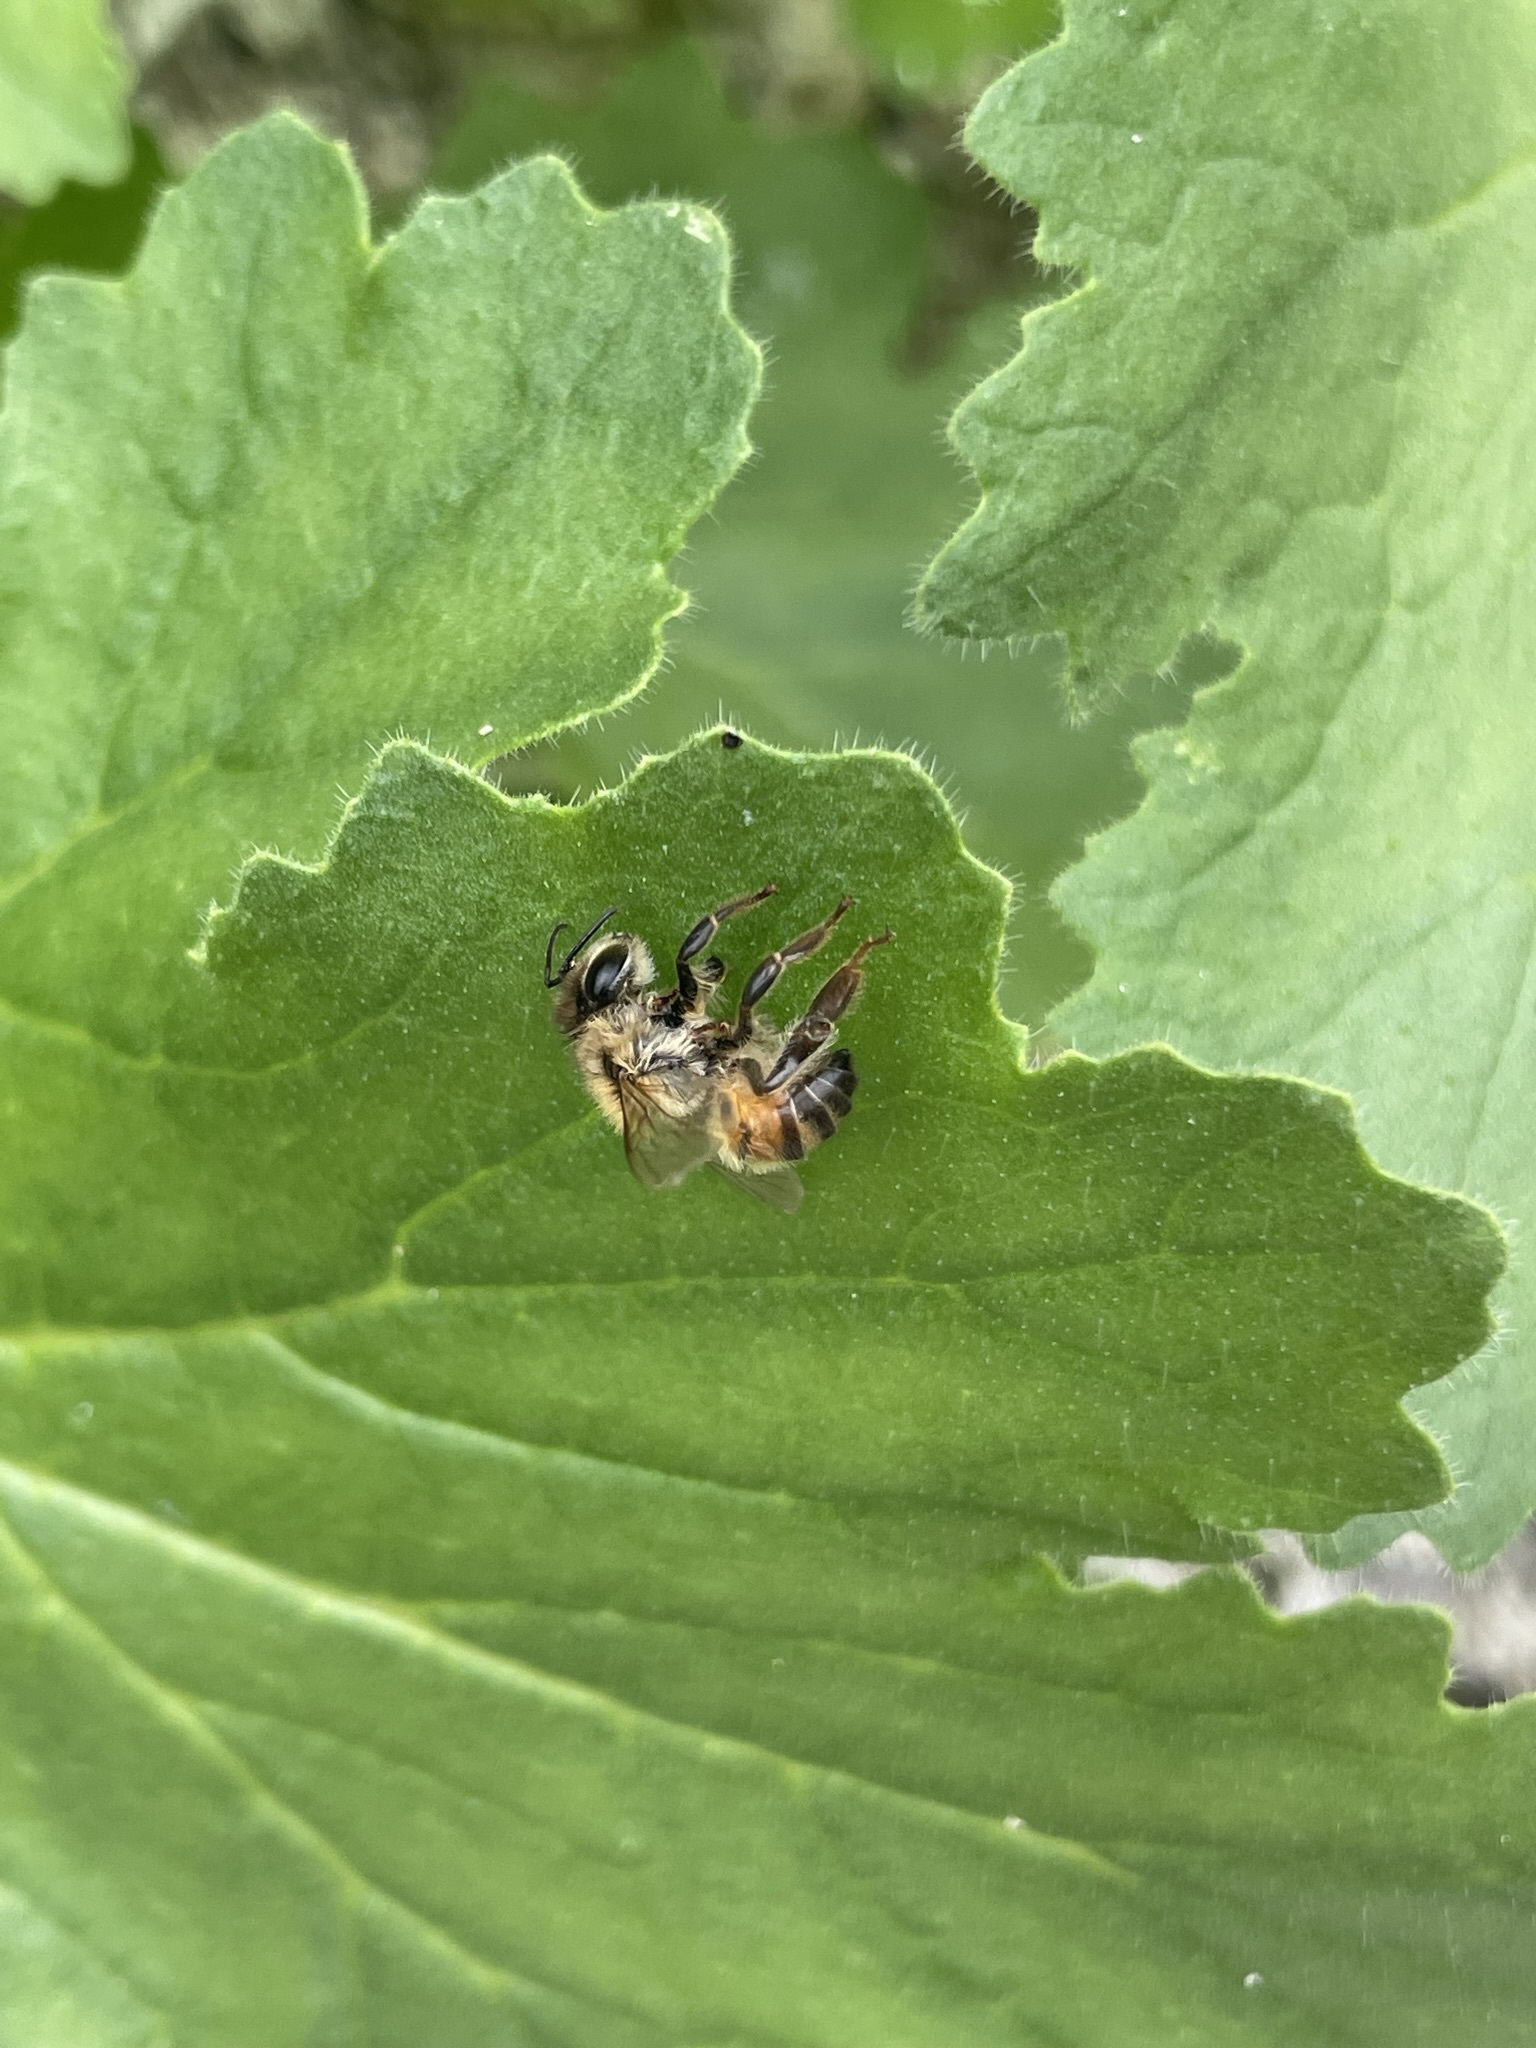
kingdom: Animalia
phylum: Arthropoda
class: Insecta
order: Hymenoptera
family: Apidae
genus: Apis
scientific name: Apis mellifera
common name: Honey bee
